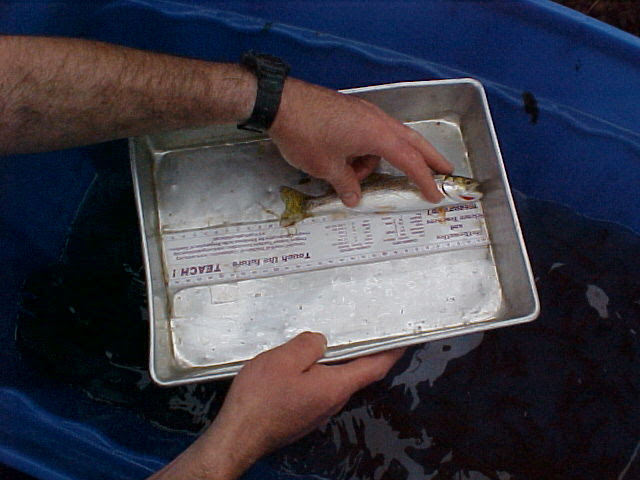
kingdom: Animalia
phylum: Chordata
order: Salmoniformes
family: Salmonidae
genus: Oncorhynchus
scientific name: Oncorhynchus clarkii
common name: Cutthroat trout
